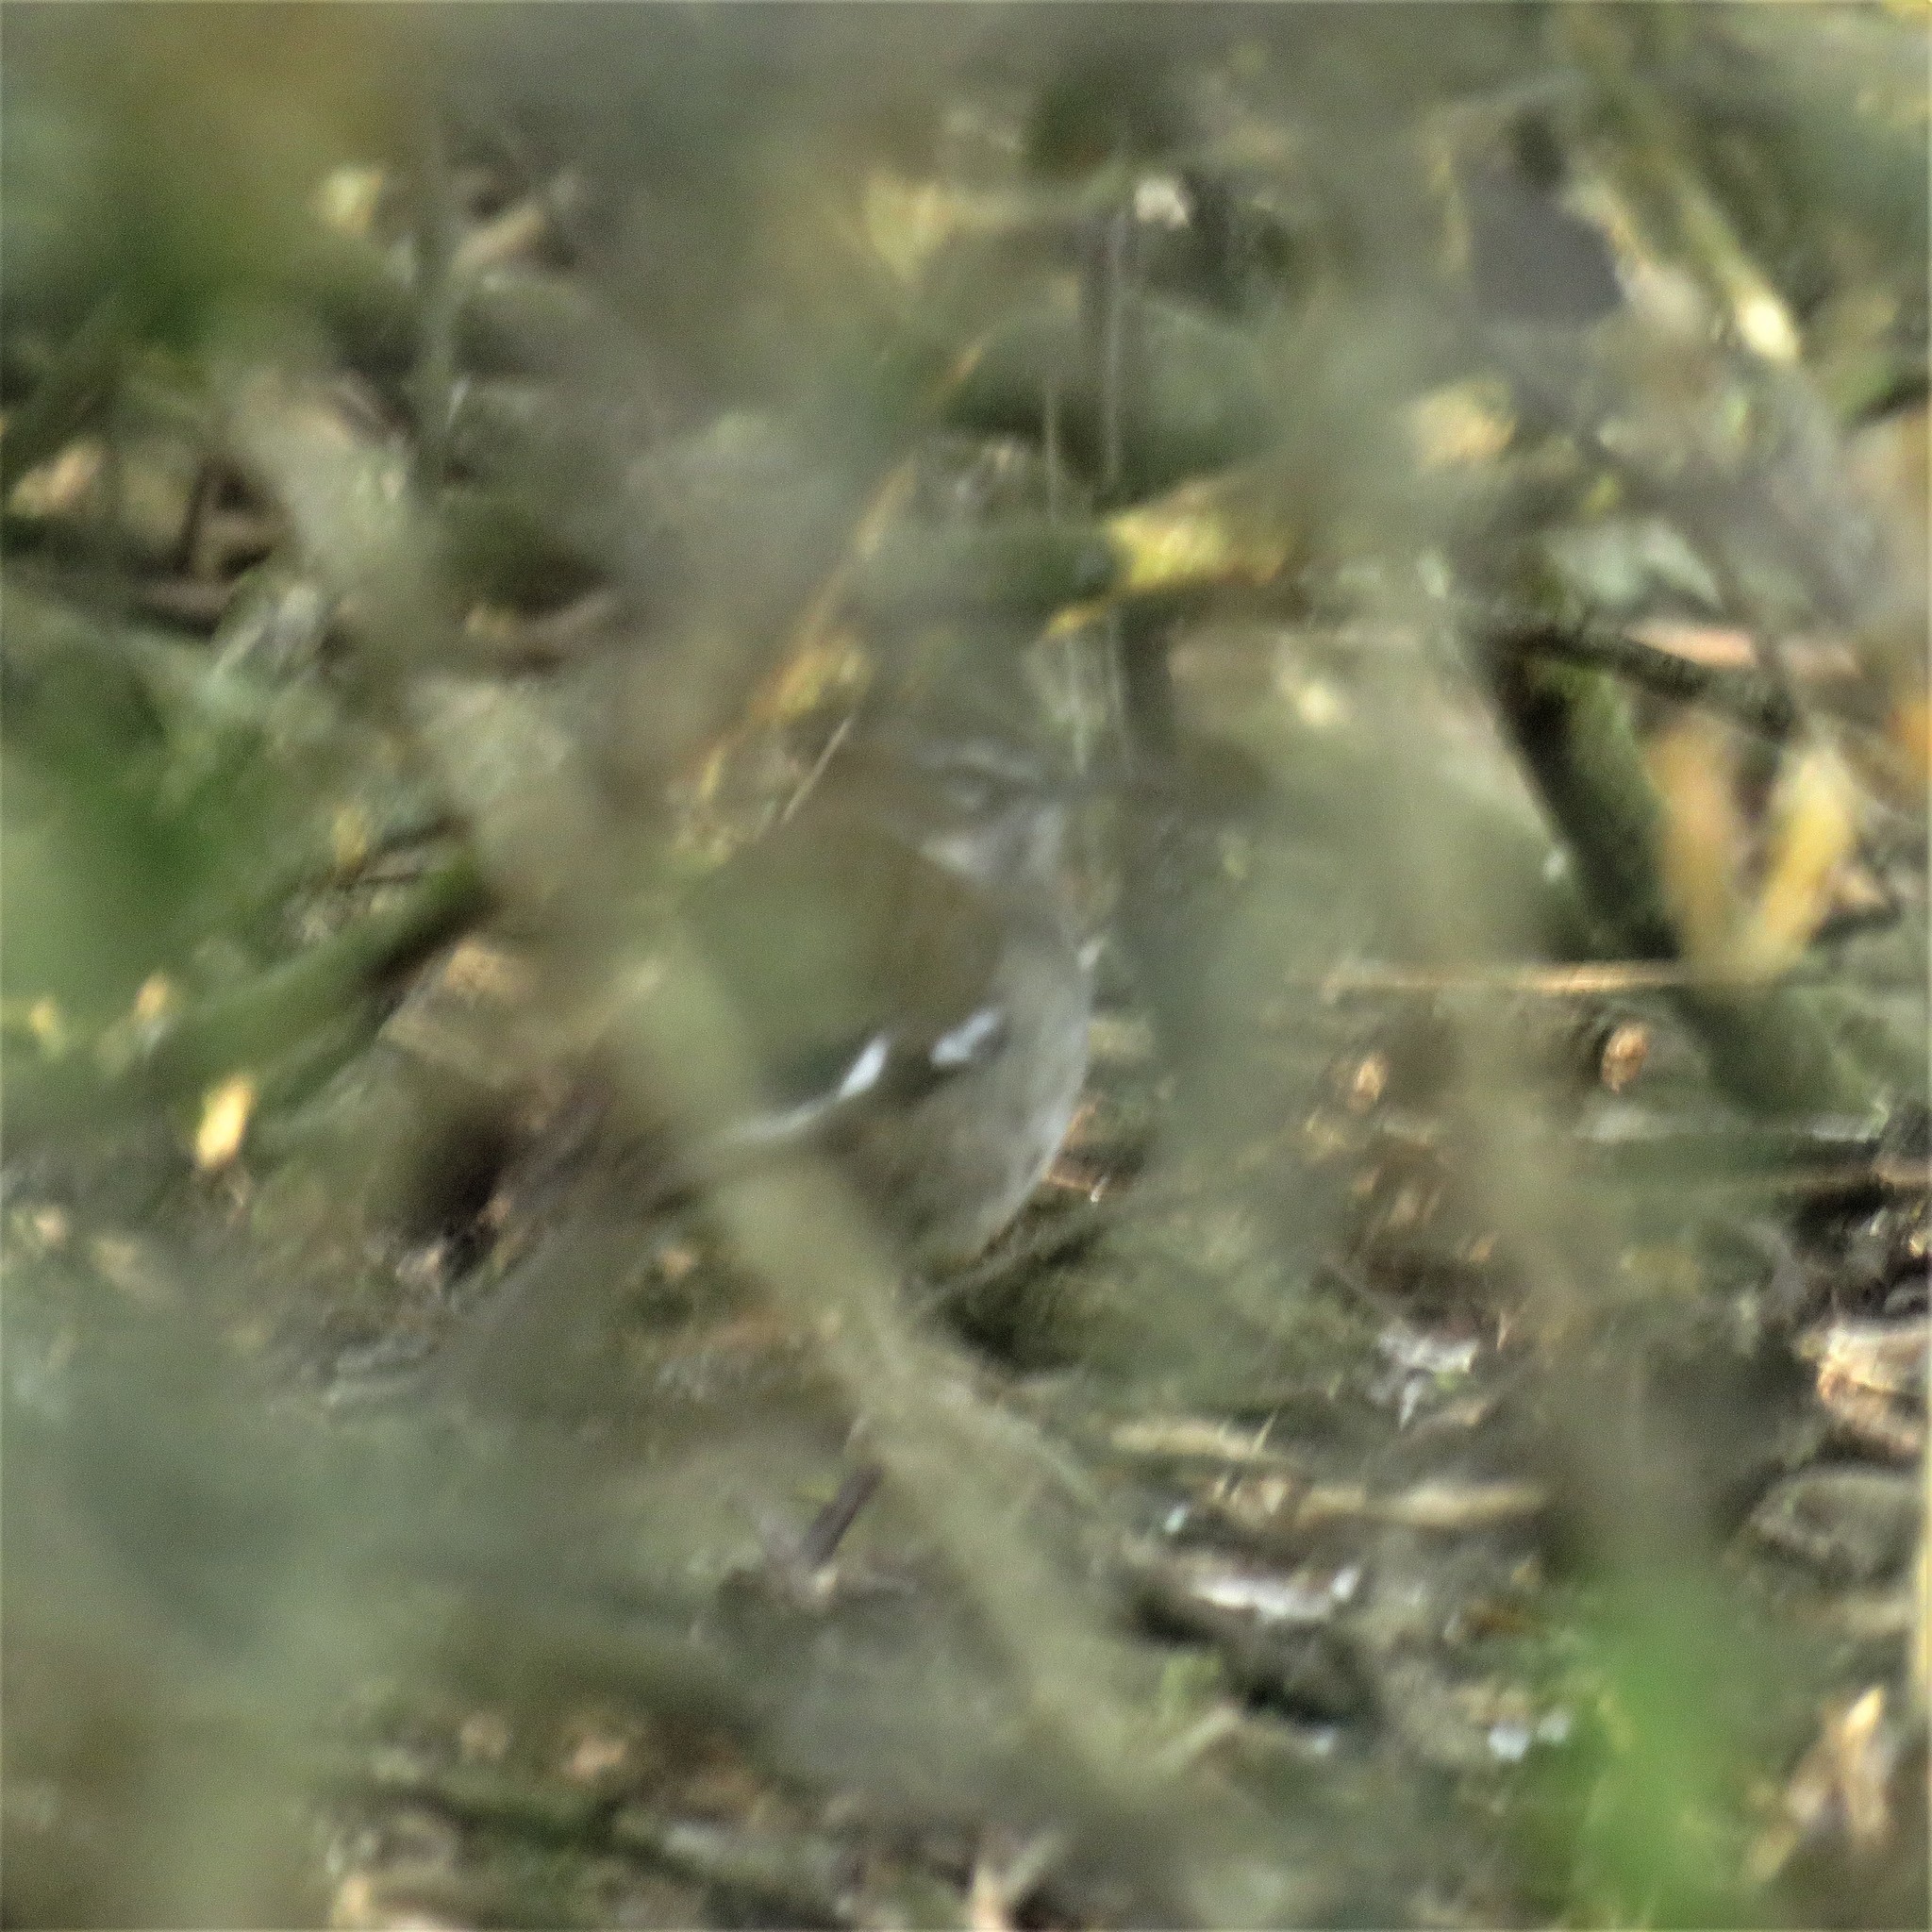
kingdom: Animalia
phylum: Chordata
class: Aves
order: Passeriformes
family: Muscicapidae
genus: Erythropygia
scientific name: Erythropygia signata
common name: Brown scrub robin
